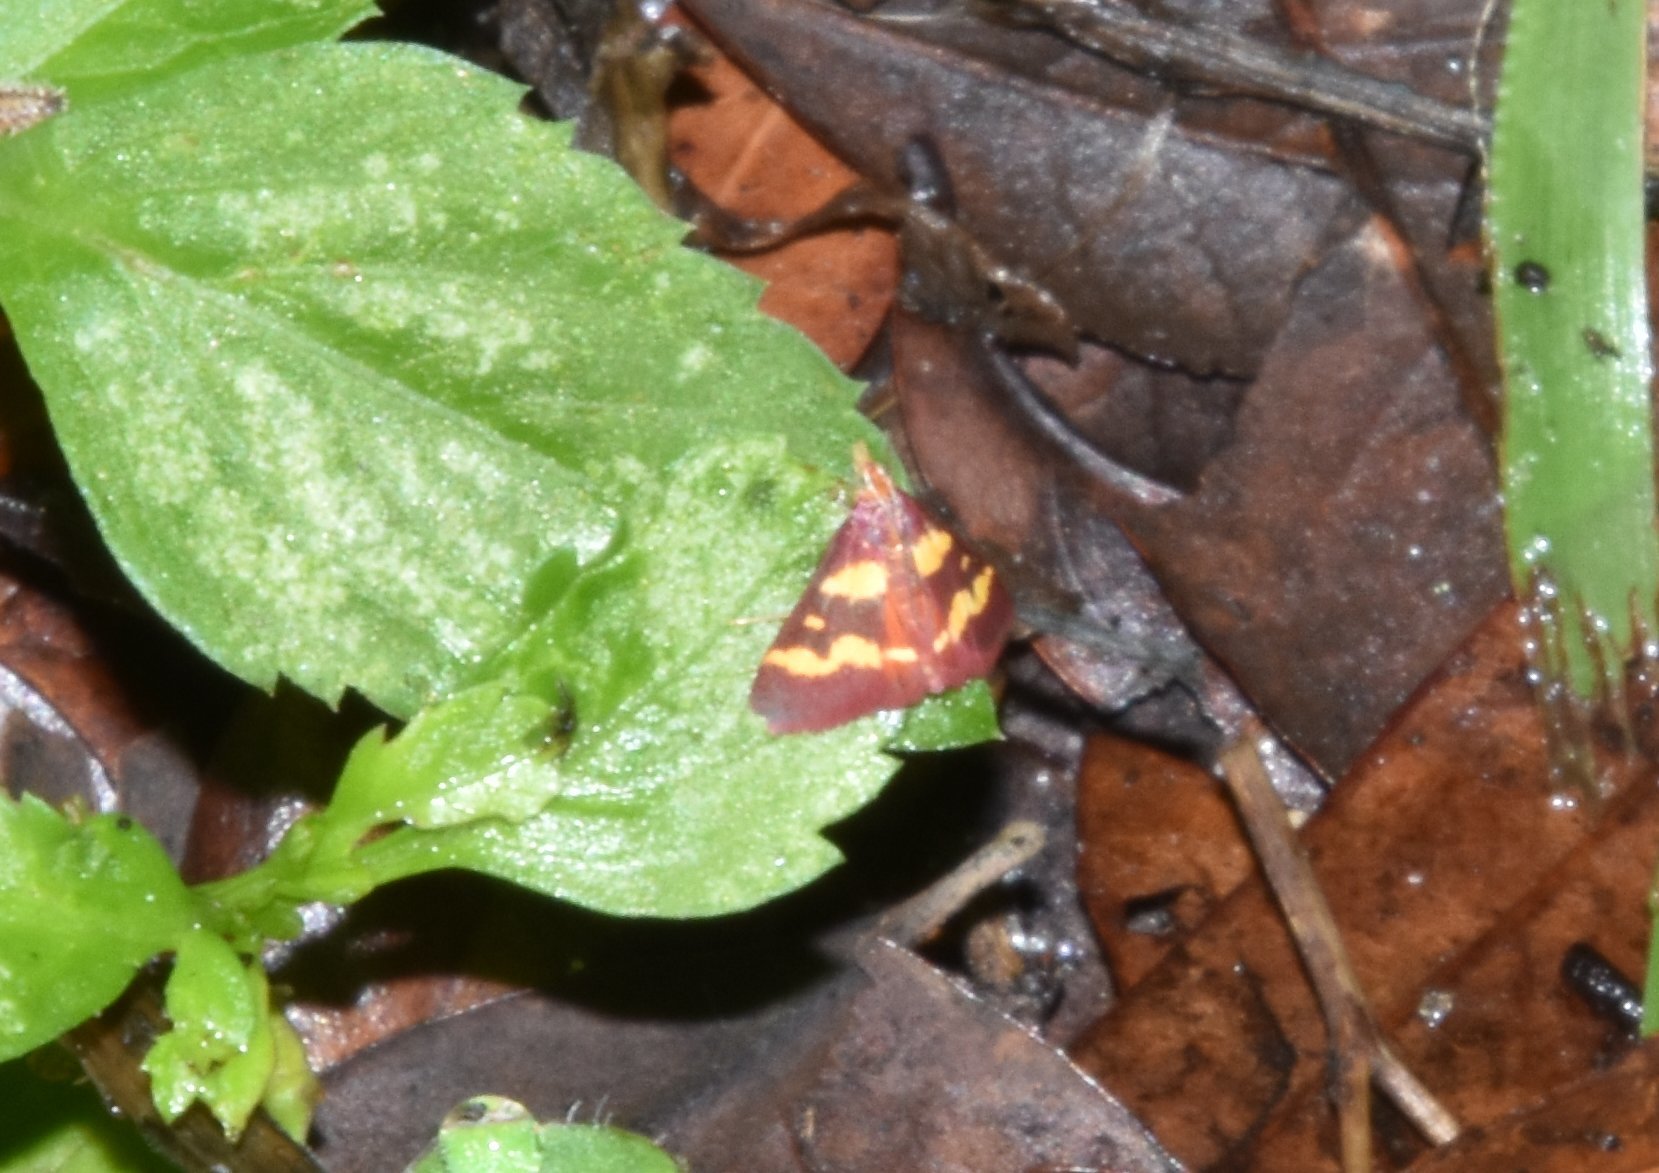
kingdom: Animalia
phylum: Arthropoda
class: Insecta
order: Lepidoptera
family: Crambidae
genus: Pyrausta
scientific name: Pyrausta tyralis
